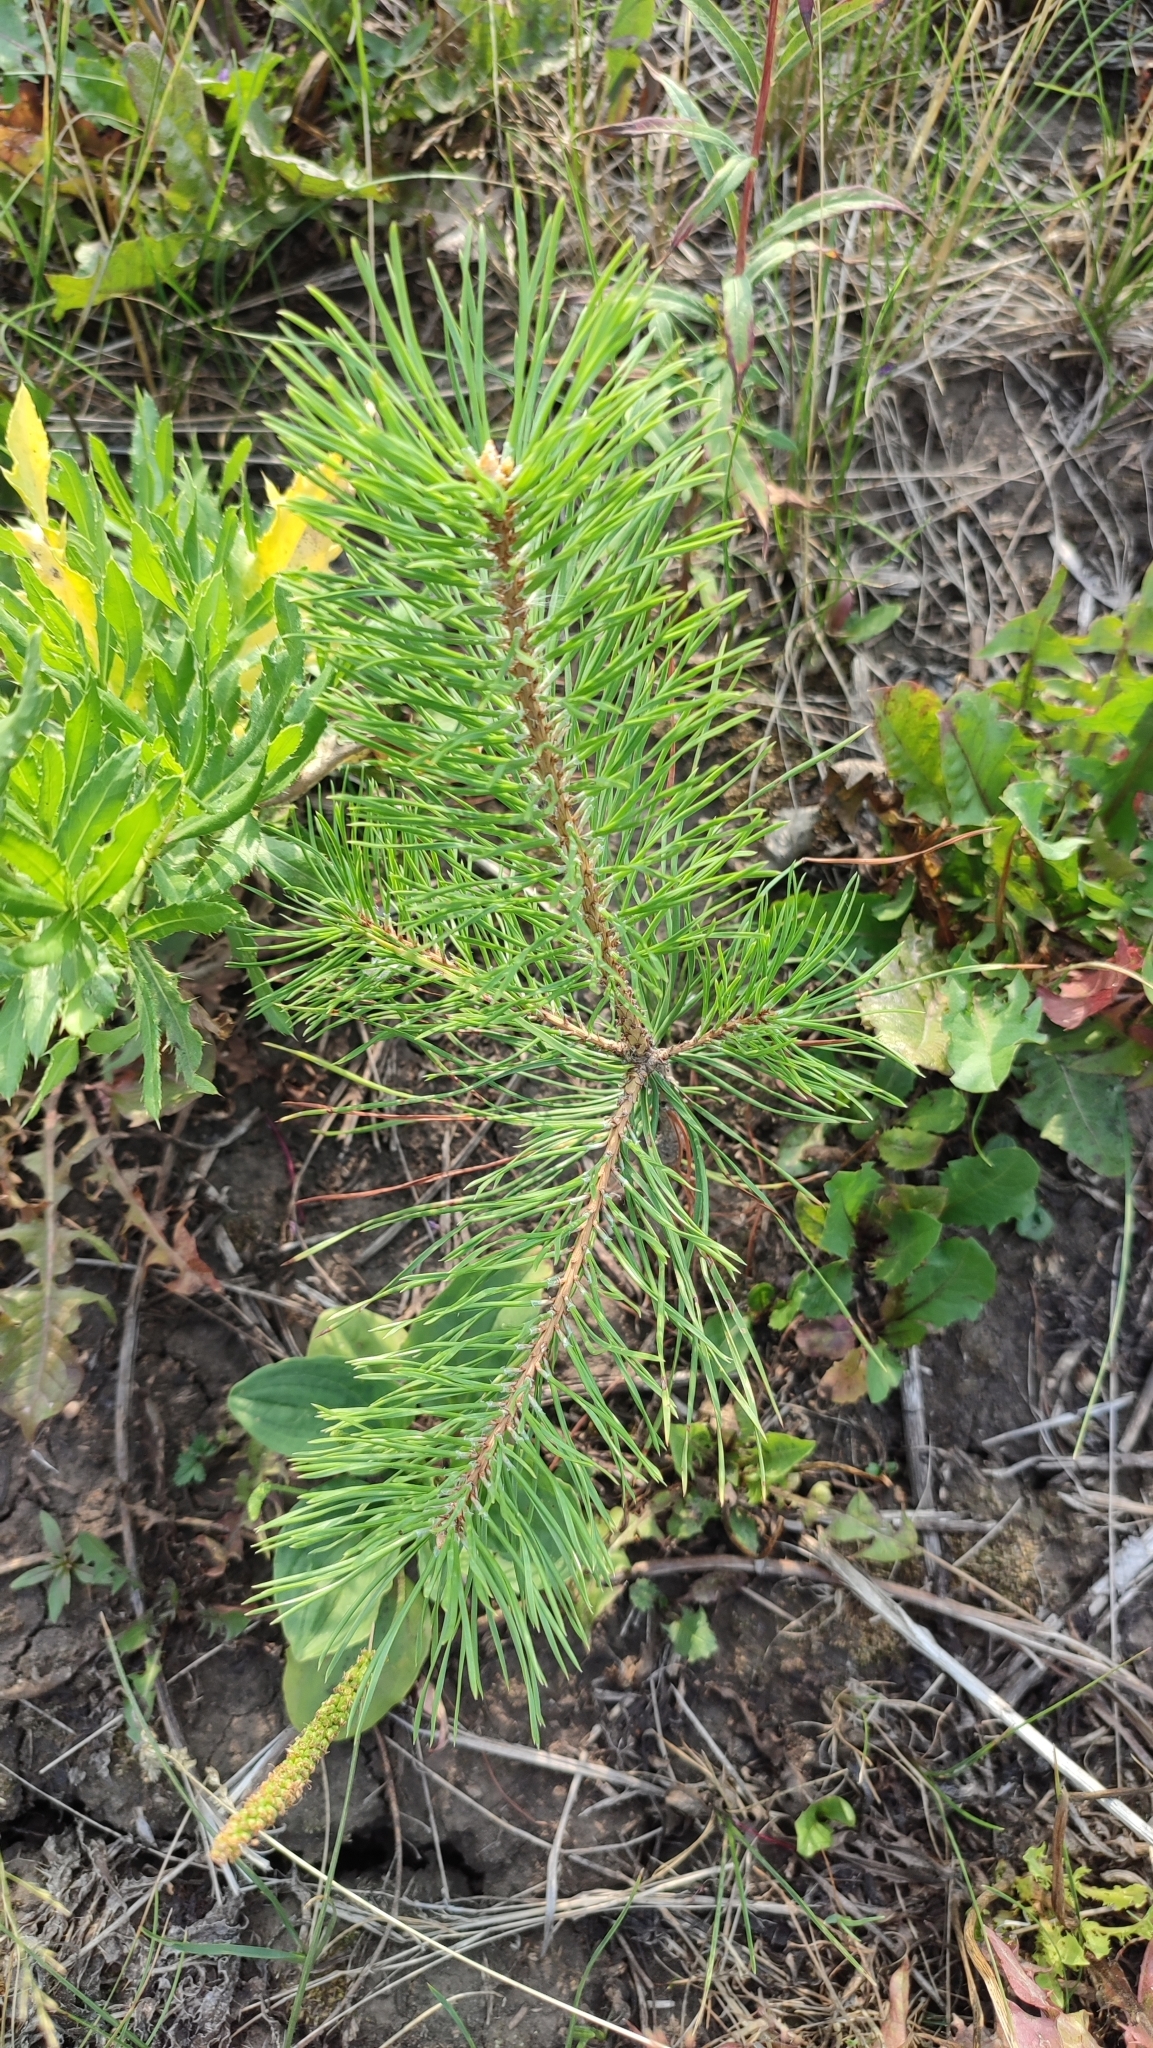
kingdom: Plantae
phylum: Tracheophyta
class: Pinopsida
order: Pinales
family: Pinaceae
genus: Pinus
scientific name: Pinus sylvestris
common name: Scots pine
